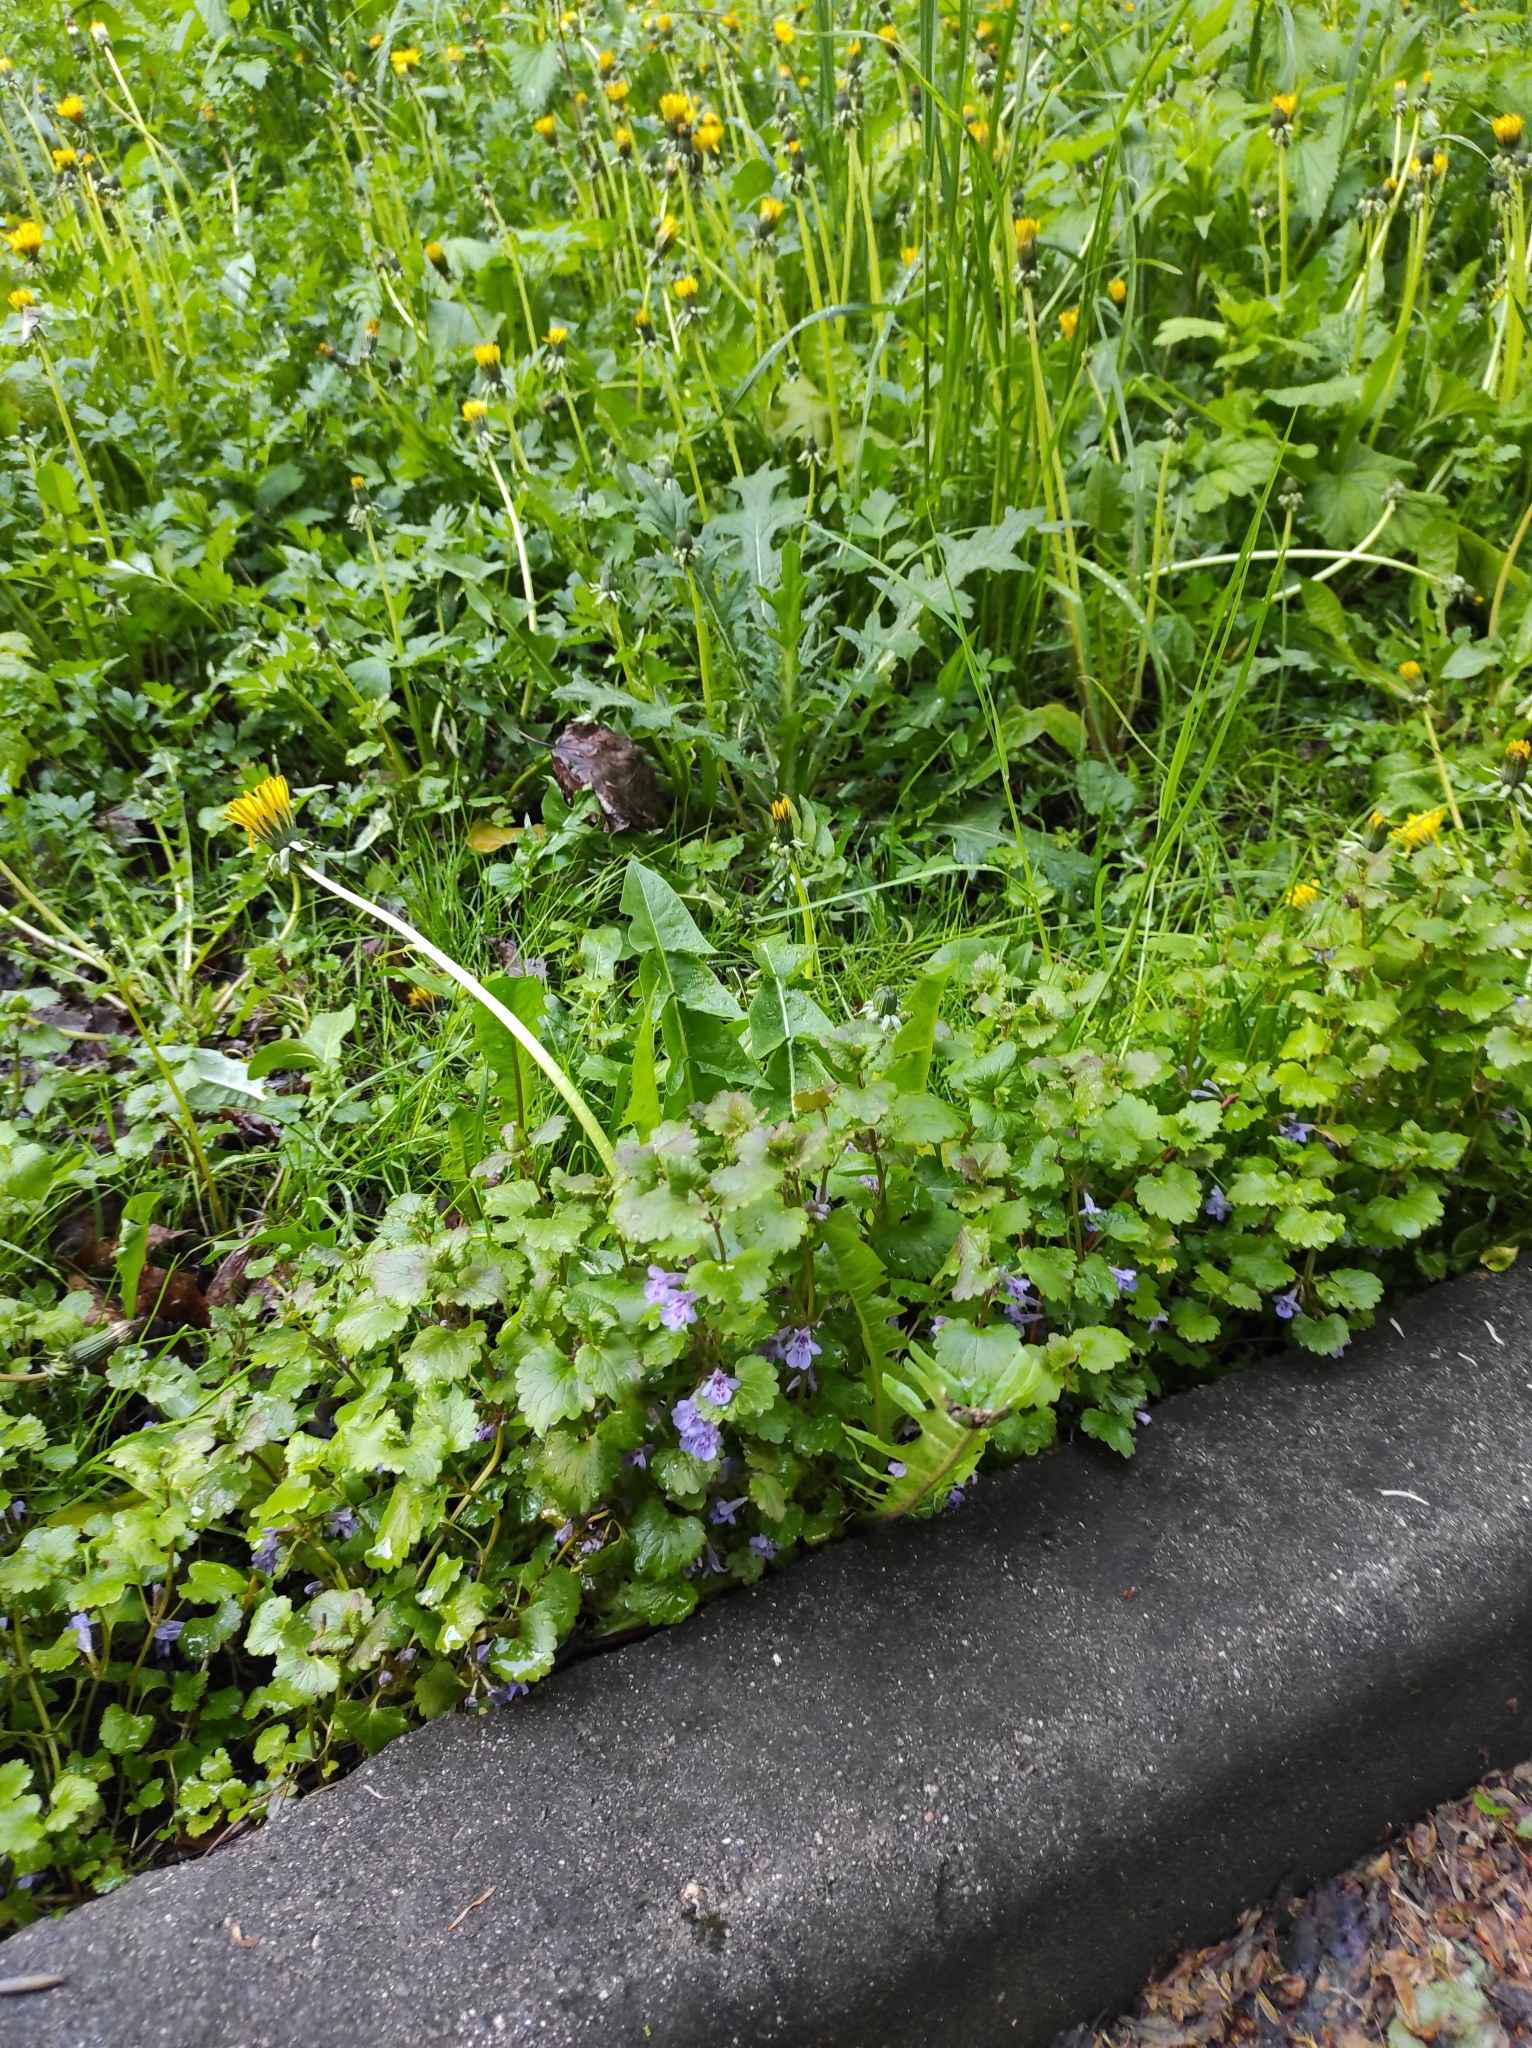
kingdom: Plantae
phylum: Tracheophyta
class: Magnoliopsida
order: Lamiales
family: Lamiaceae
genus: Glechoma
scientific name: Glechoma hederacea
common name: Ground ivy
